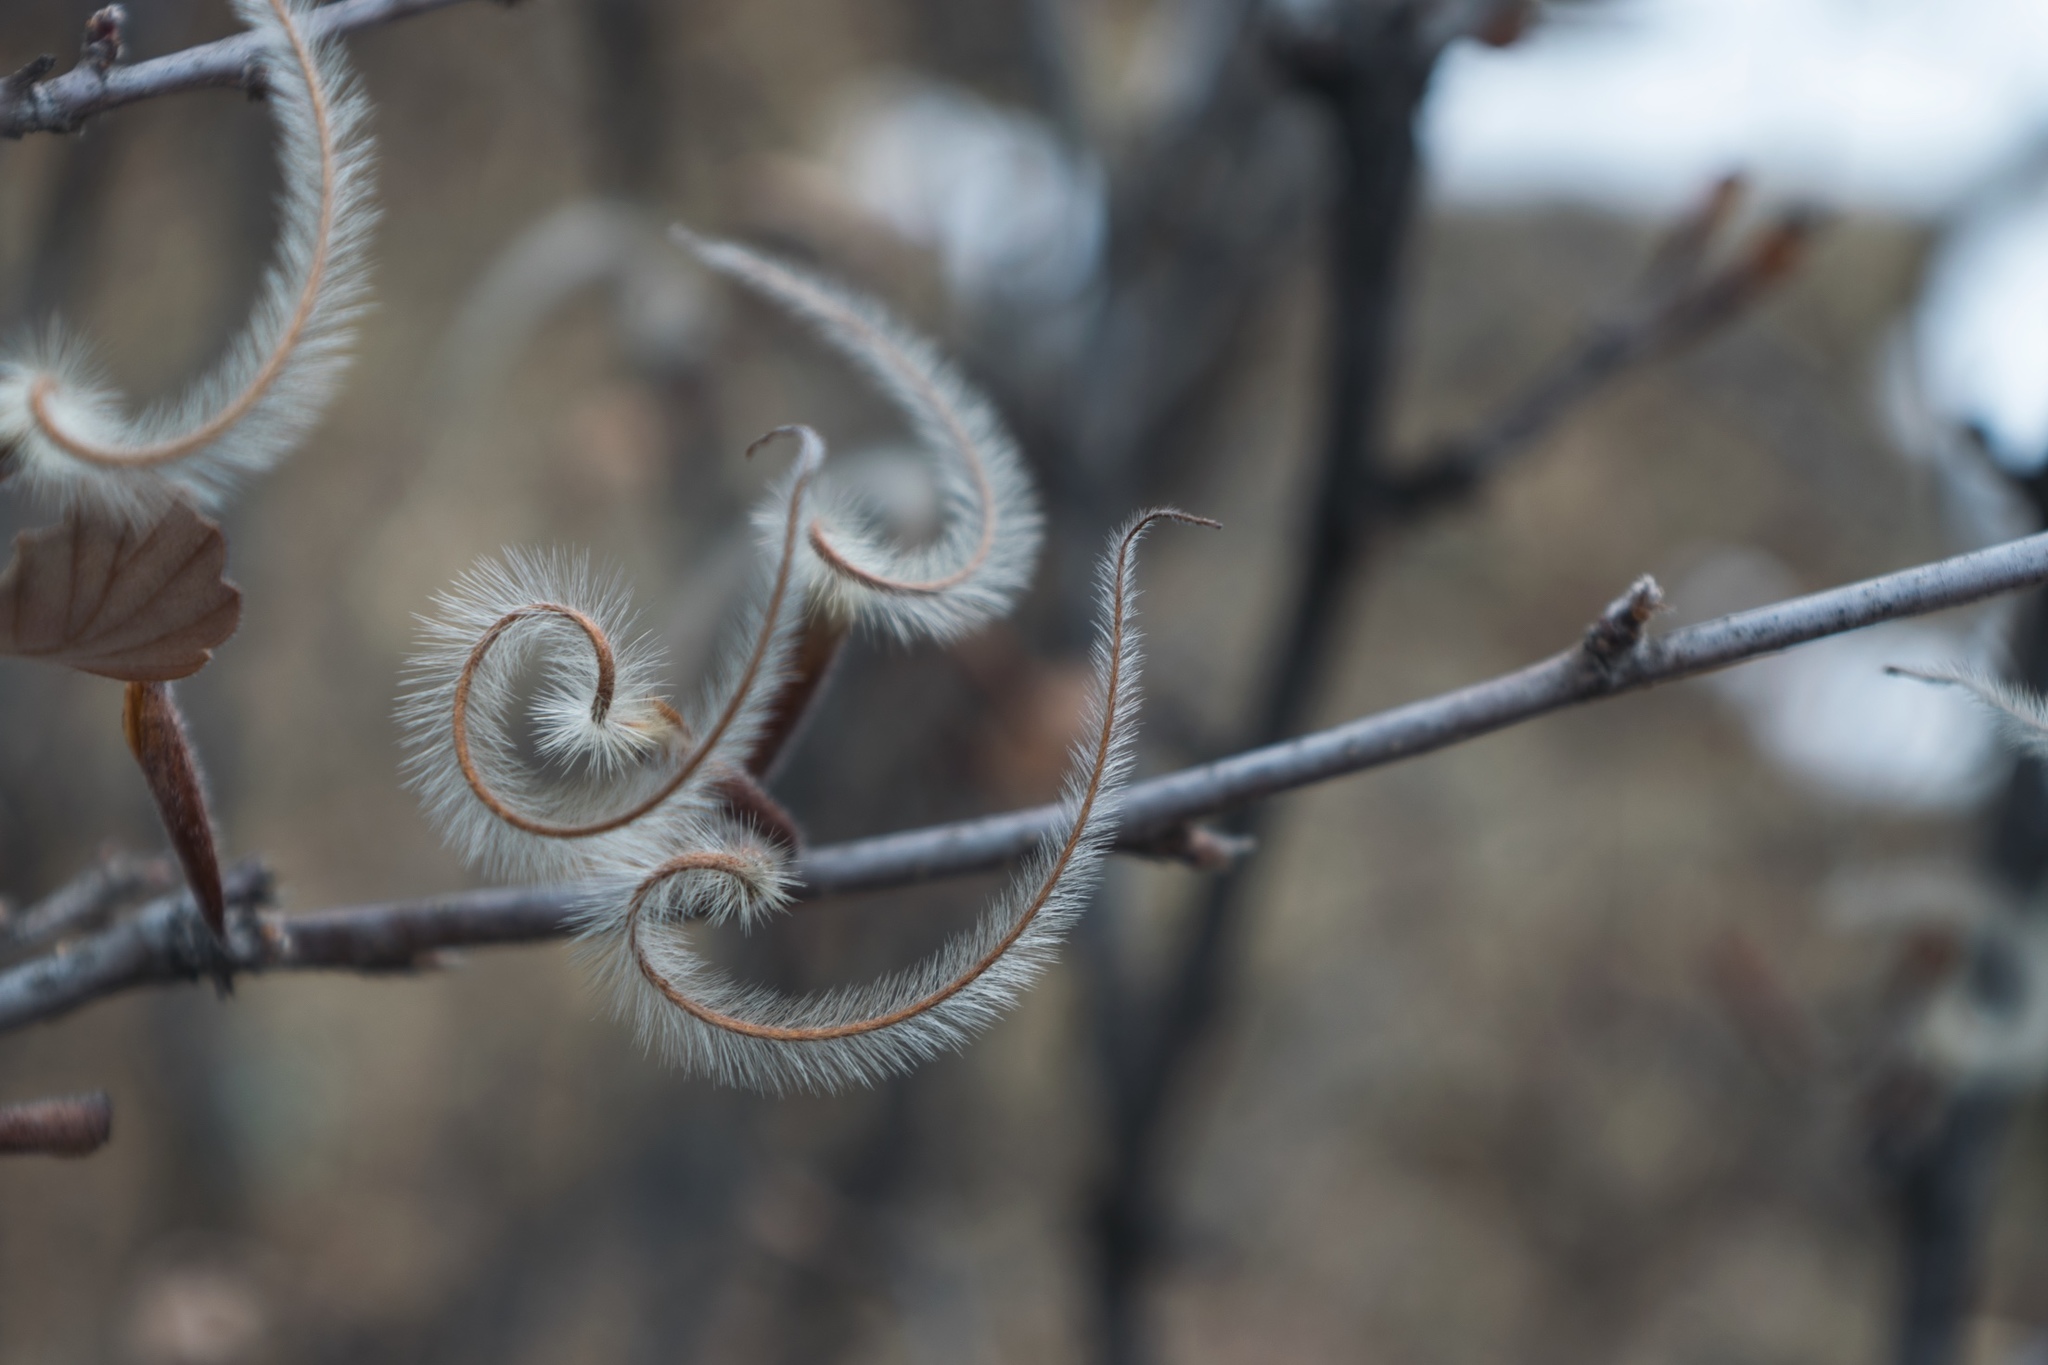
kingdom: Plantae
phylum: Tracheophyta
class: Magnoliopsida
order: Rosales
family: Rosaceae
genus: Cercocarpus
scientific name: Cercocarpus montanus
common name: Alder-leaf cercocarpus
